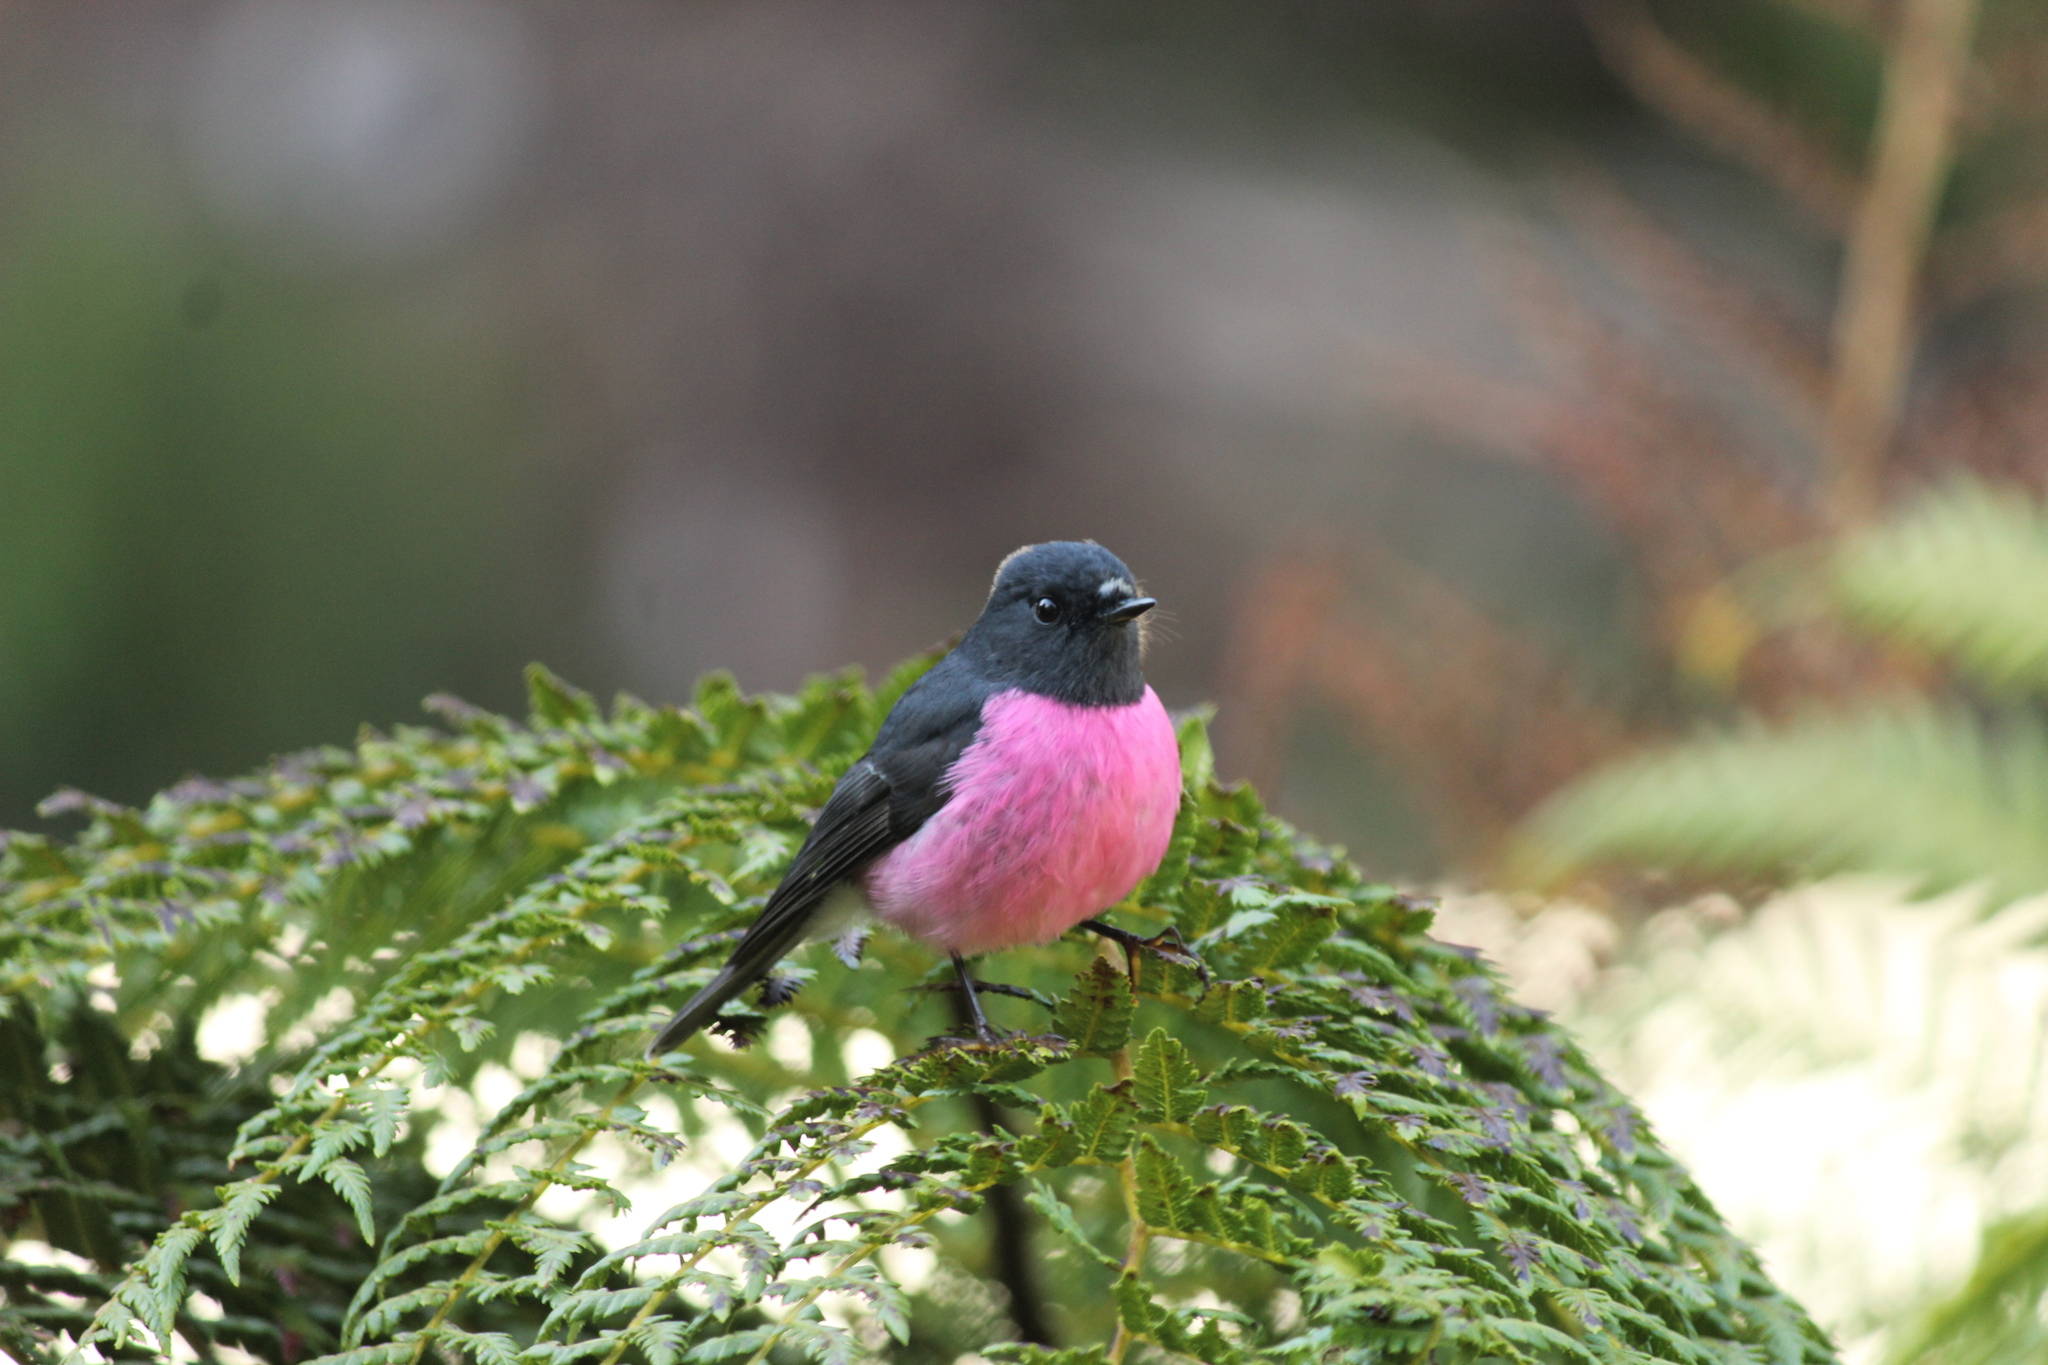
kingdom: Animalia
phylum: Chordata
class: Aves
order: Passeriformes
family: Petroicidae
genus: Petroica
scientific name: Petroica rodinogaster
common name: Pink robin
